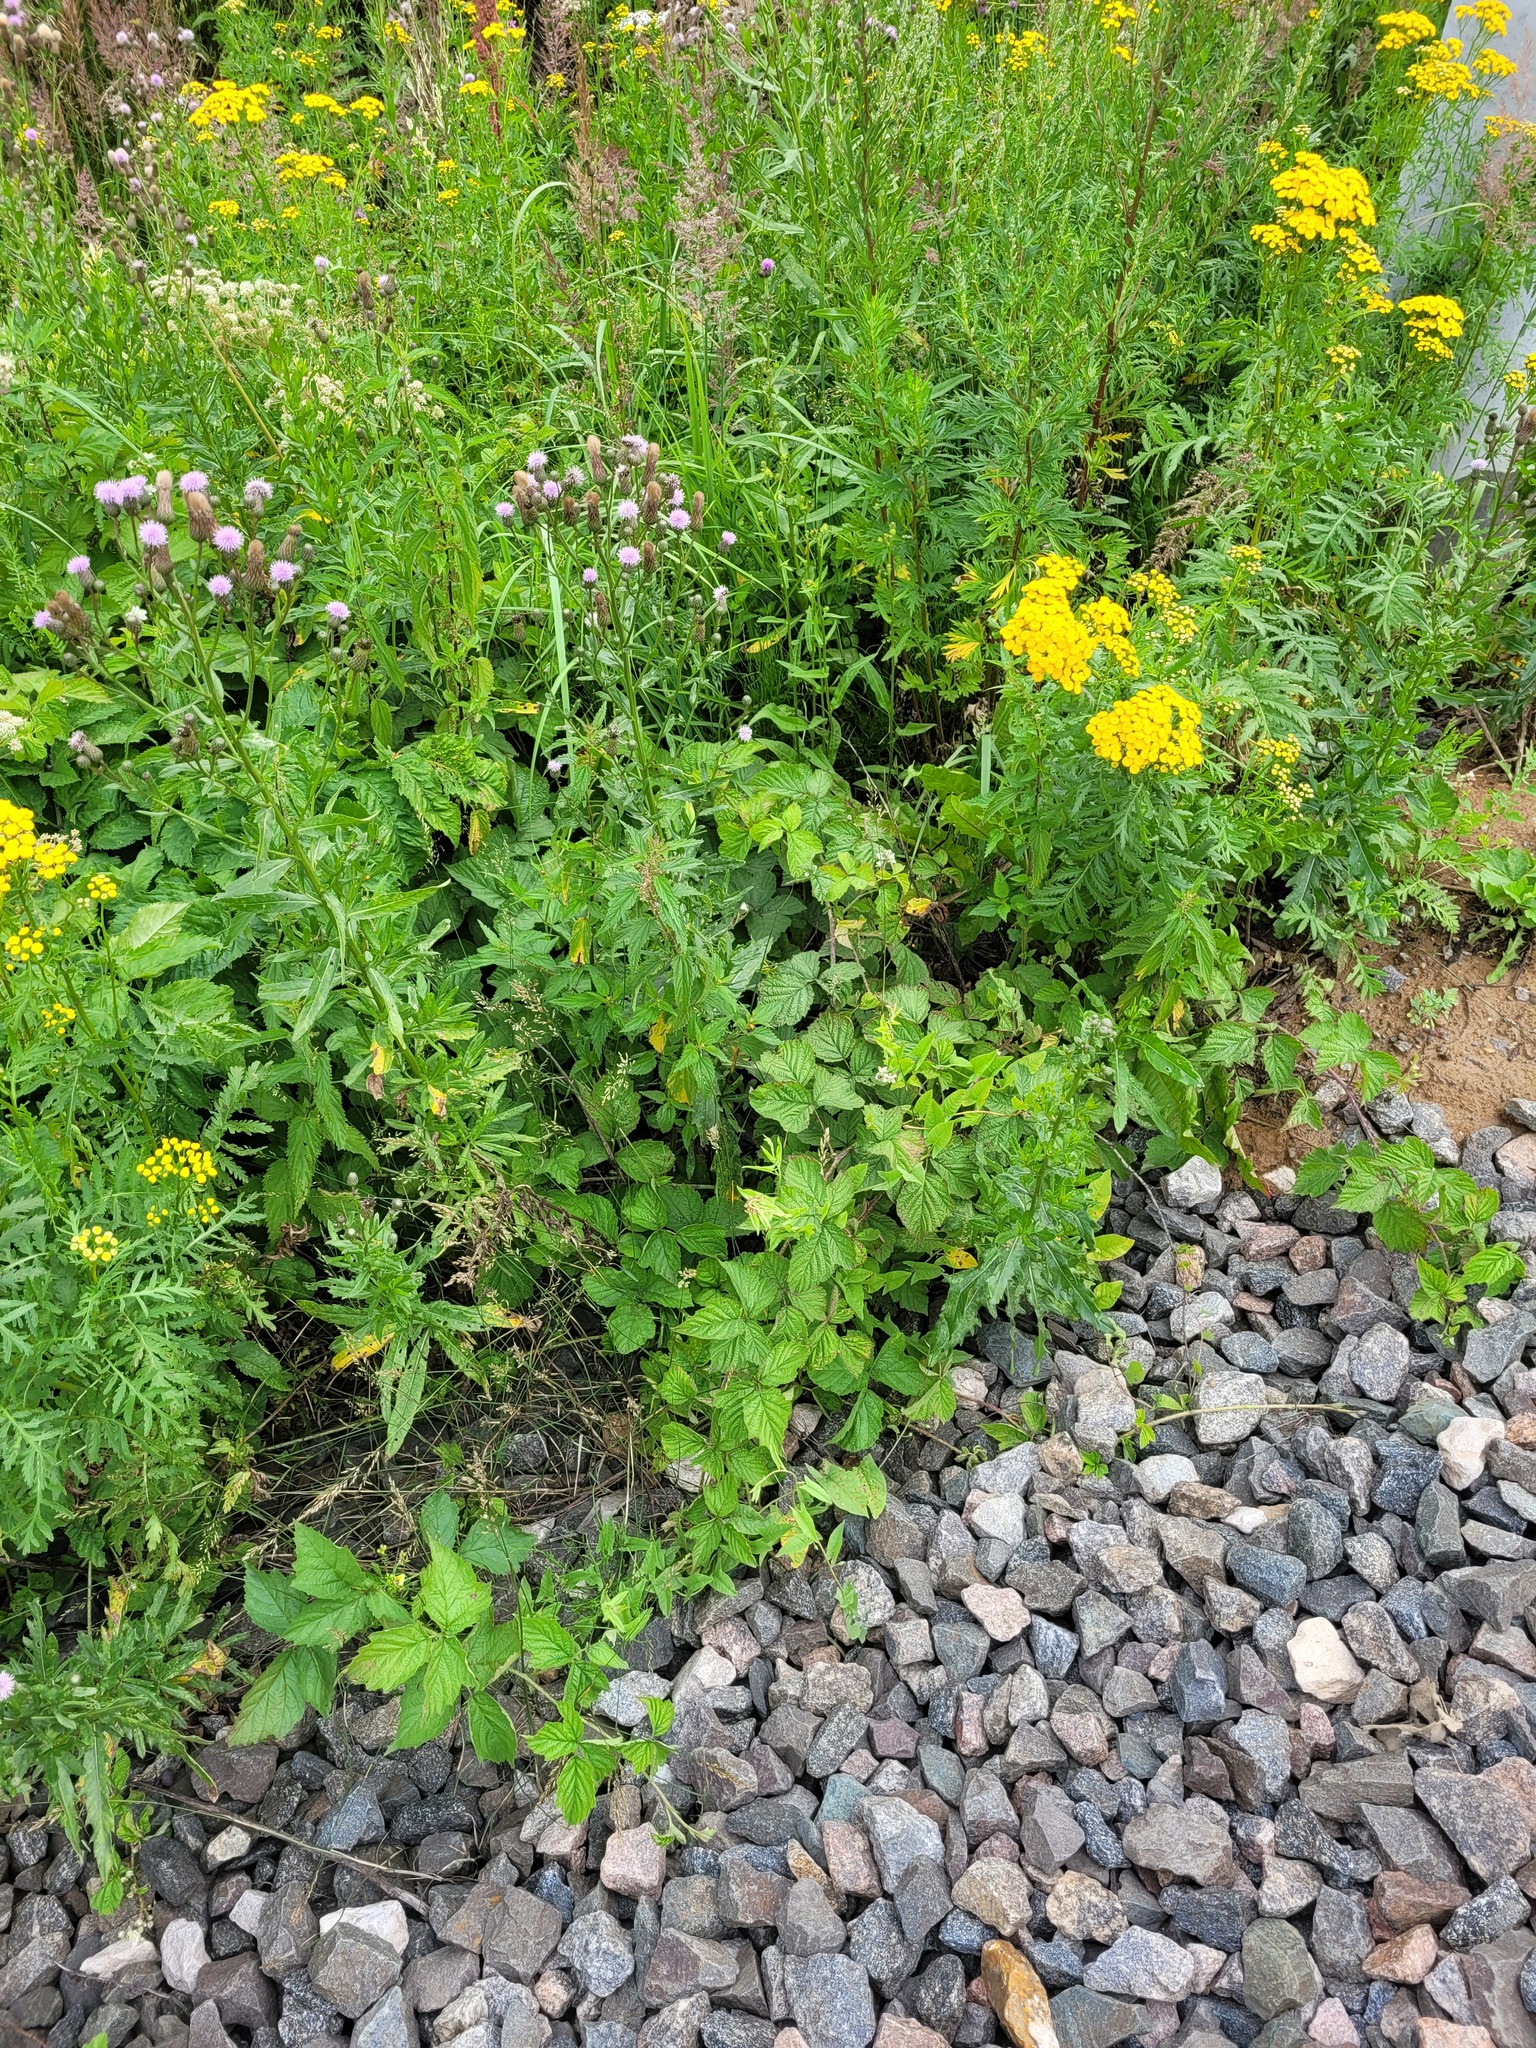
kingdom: Plantae
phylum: Tracheophyta
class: Magnoliopsida
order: Rosales
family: Rosaceae
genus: Rubus
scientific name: Rubus caesius
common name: Dewberry
